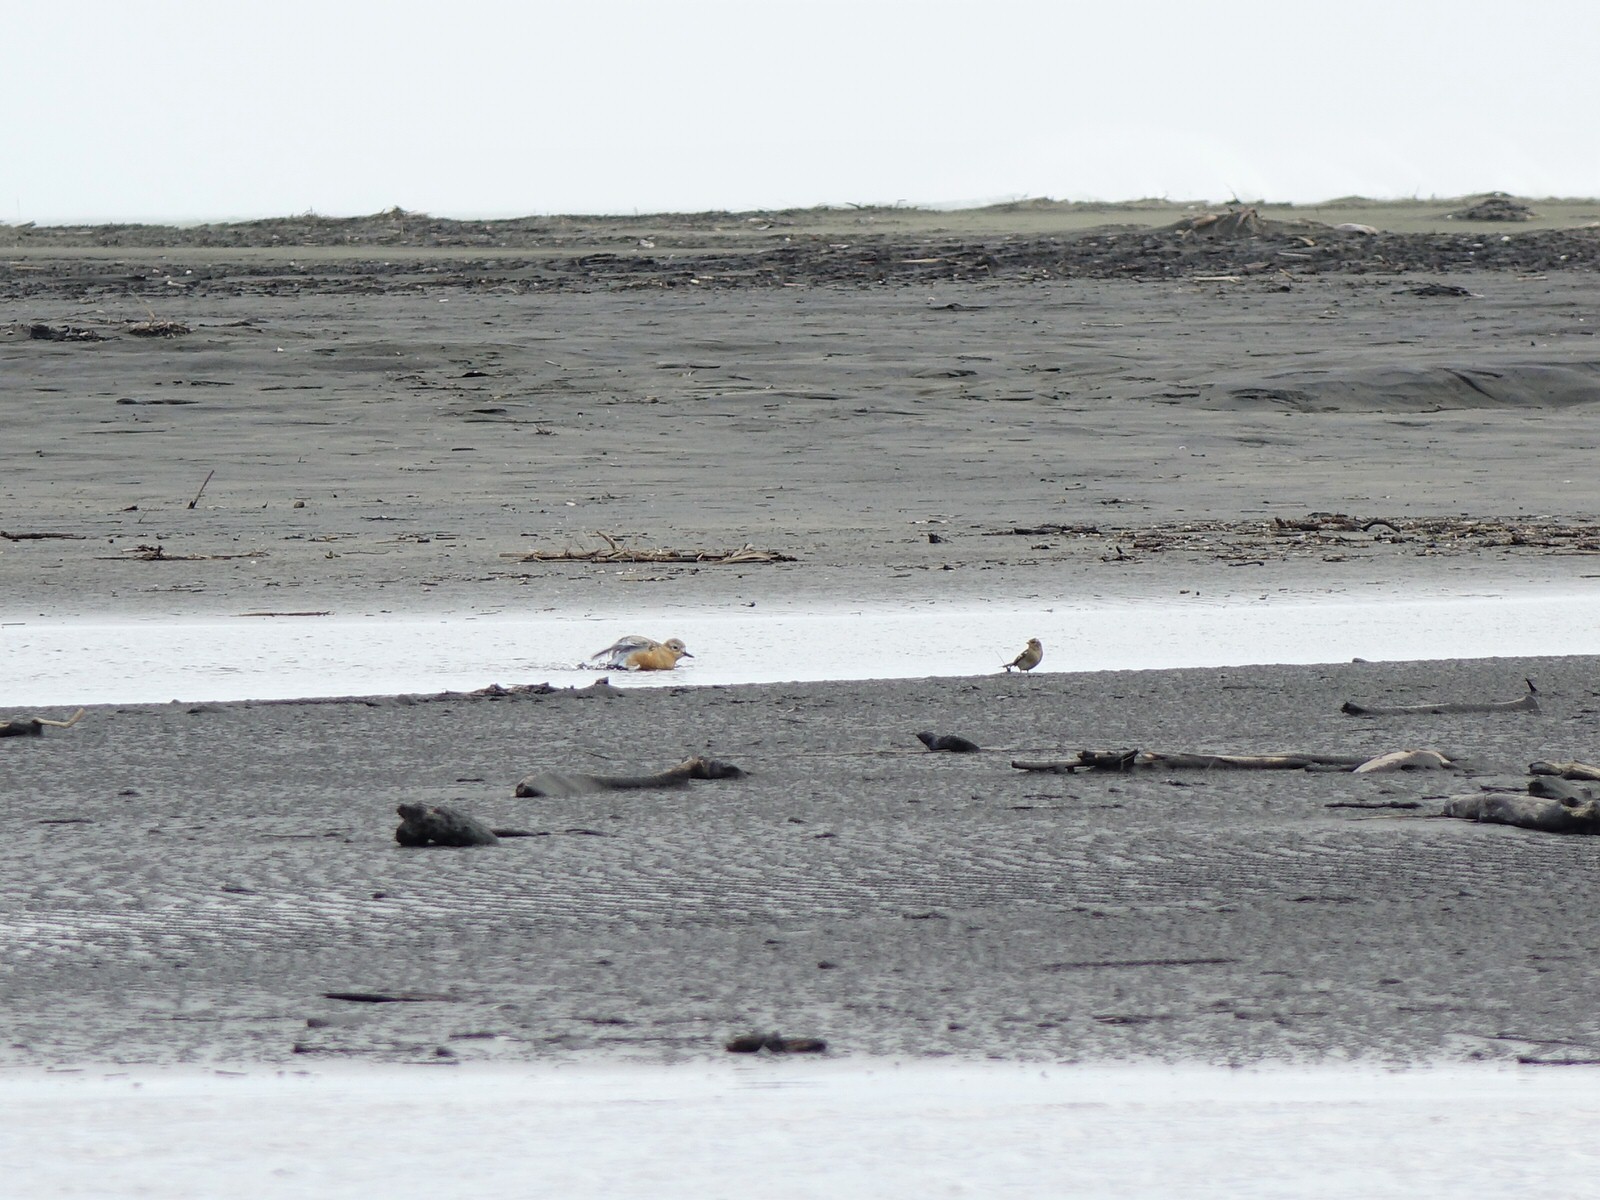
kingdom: Animalia
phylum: Chordata
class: Aves
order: Passeriformes
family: Fringillidae
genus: Fringilla
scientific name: Fringilla coelebs
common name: Common chaffinch
